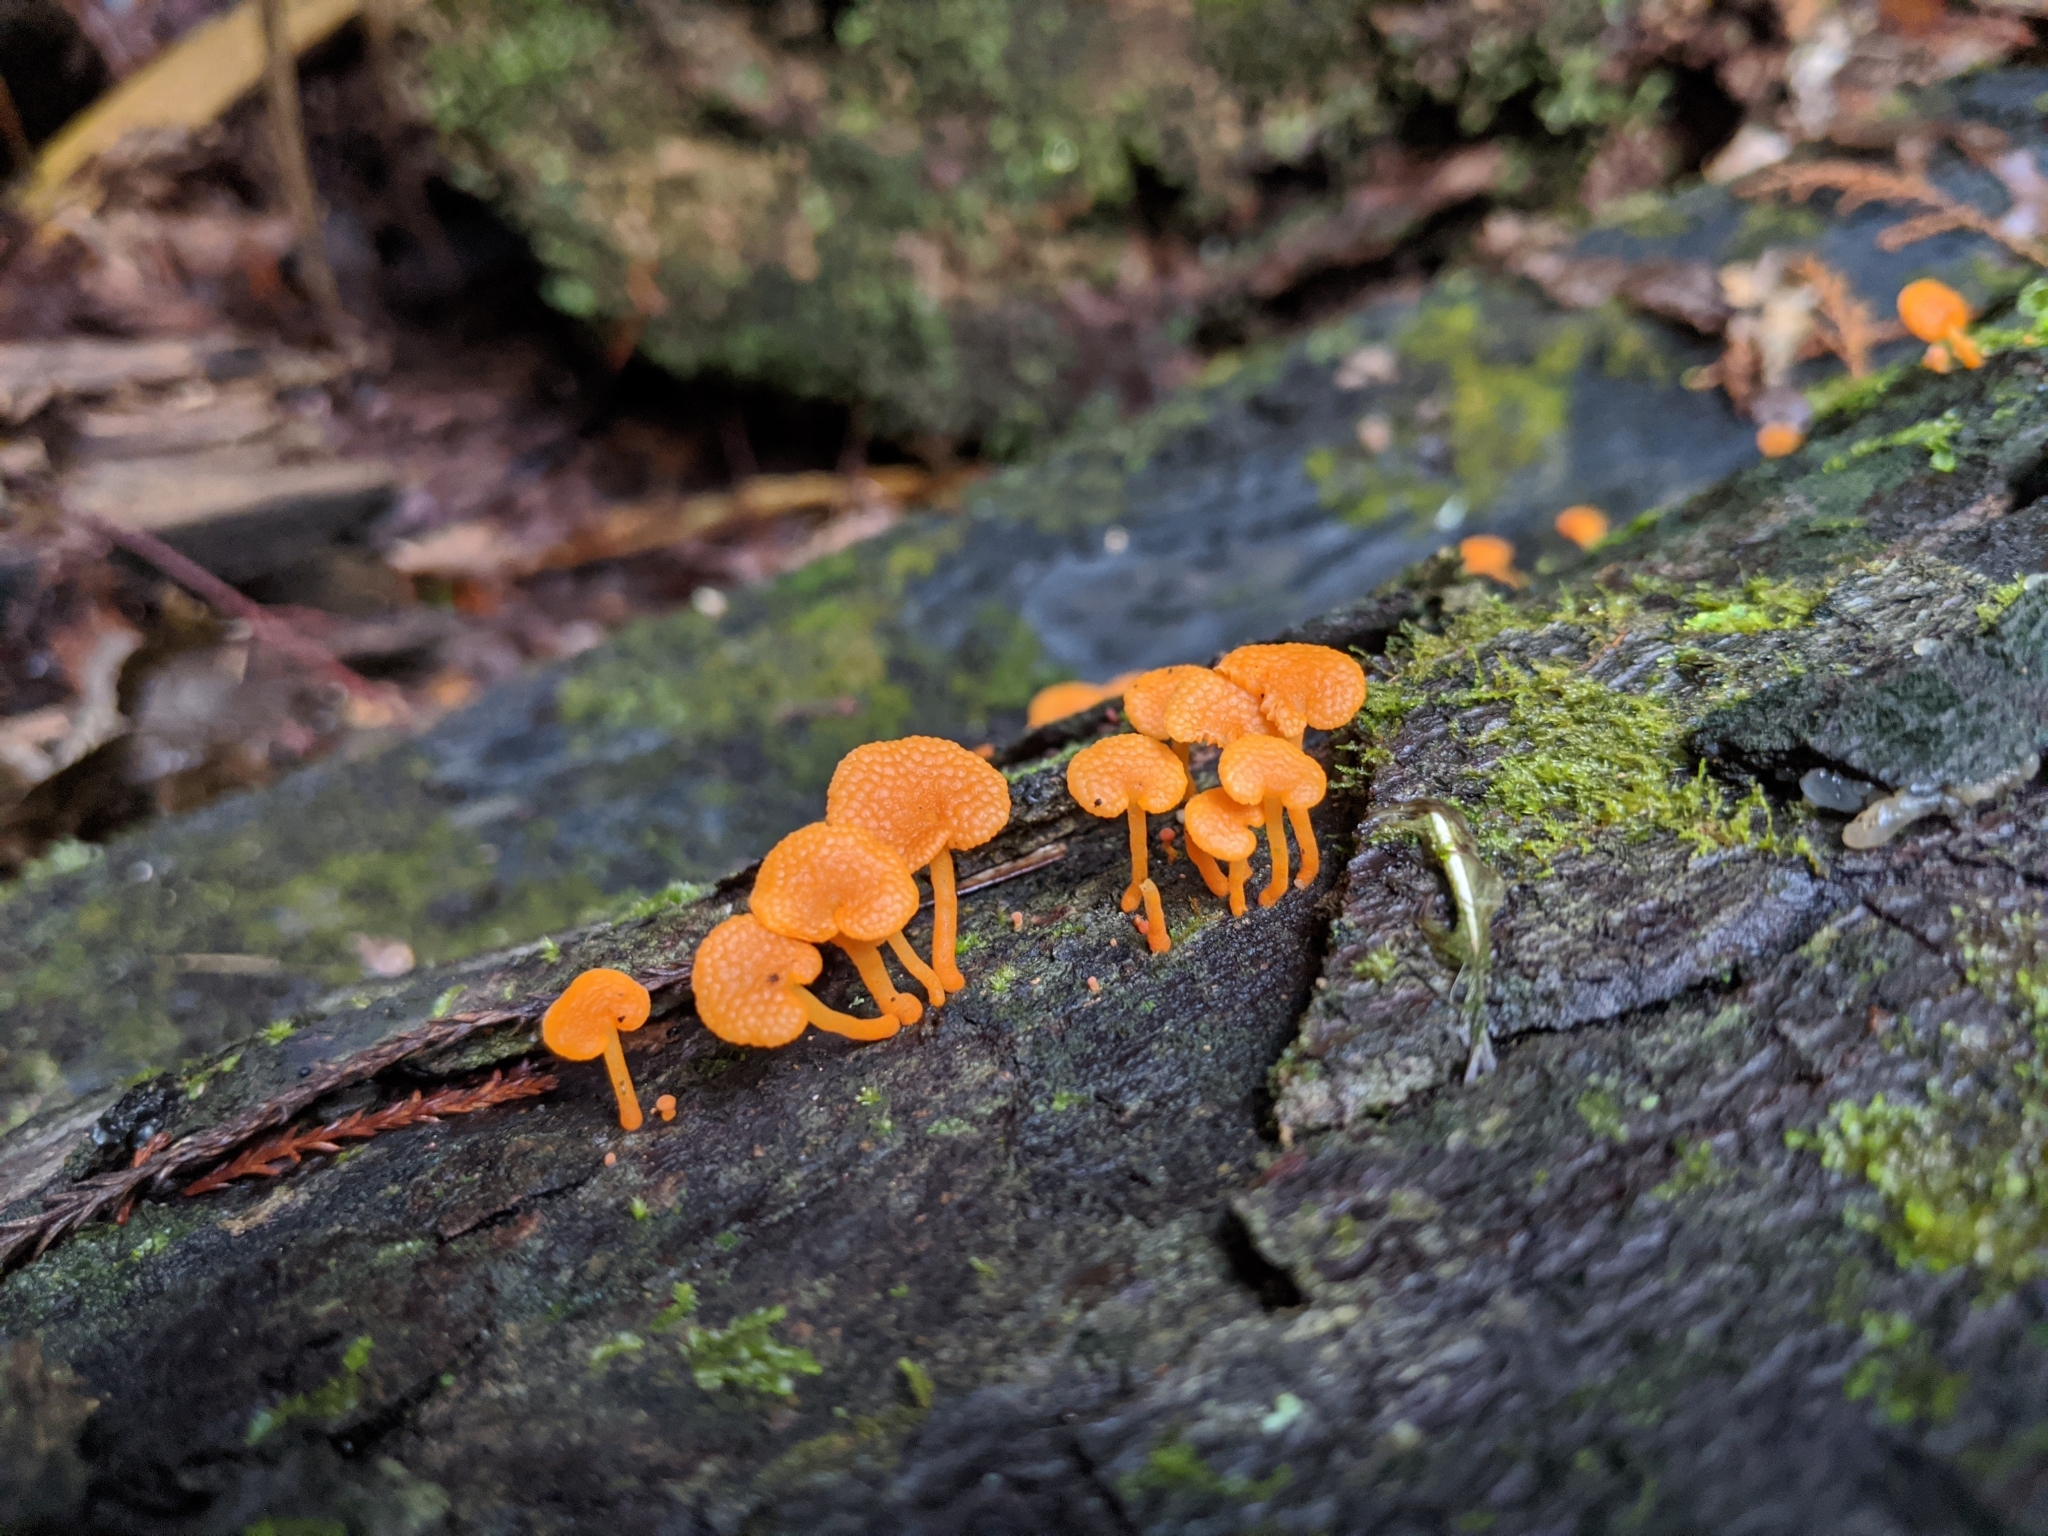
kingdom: Fungi
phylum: Basidiomycota
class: Agaricomycetes
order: Agaricales
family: Mycenaceae
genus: Favolaschia
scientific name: Favolaschia claudopus
